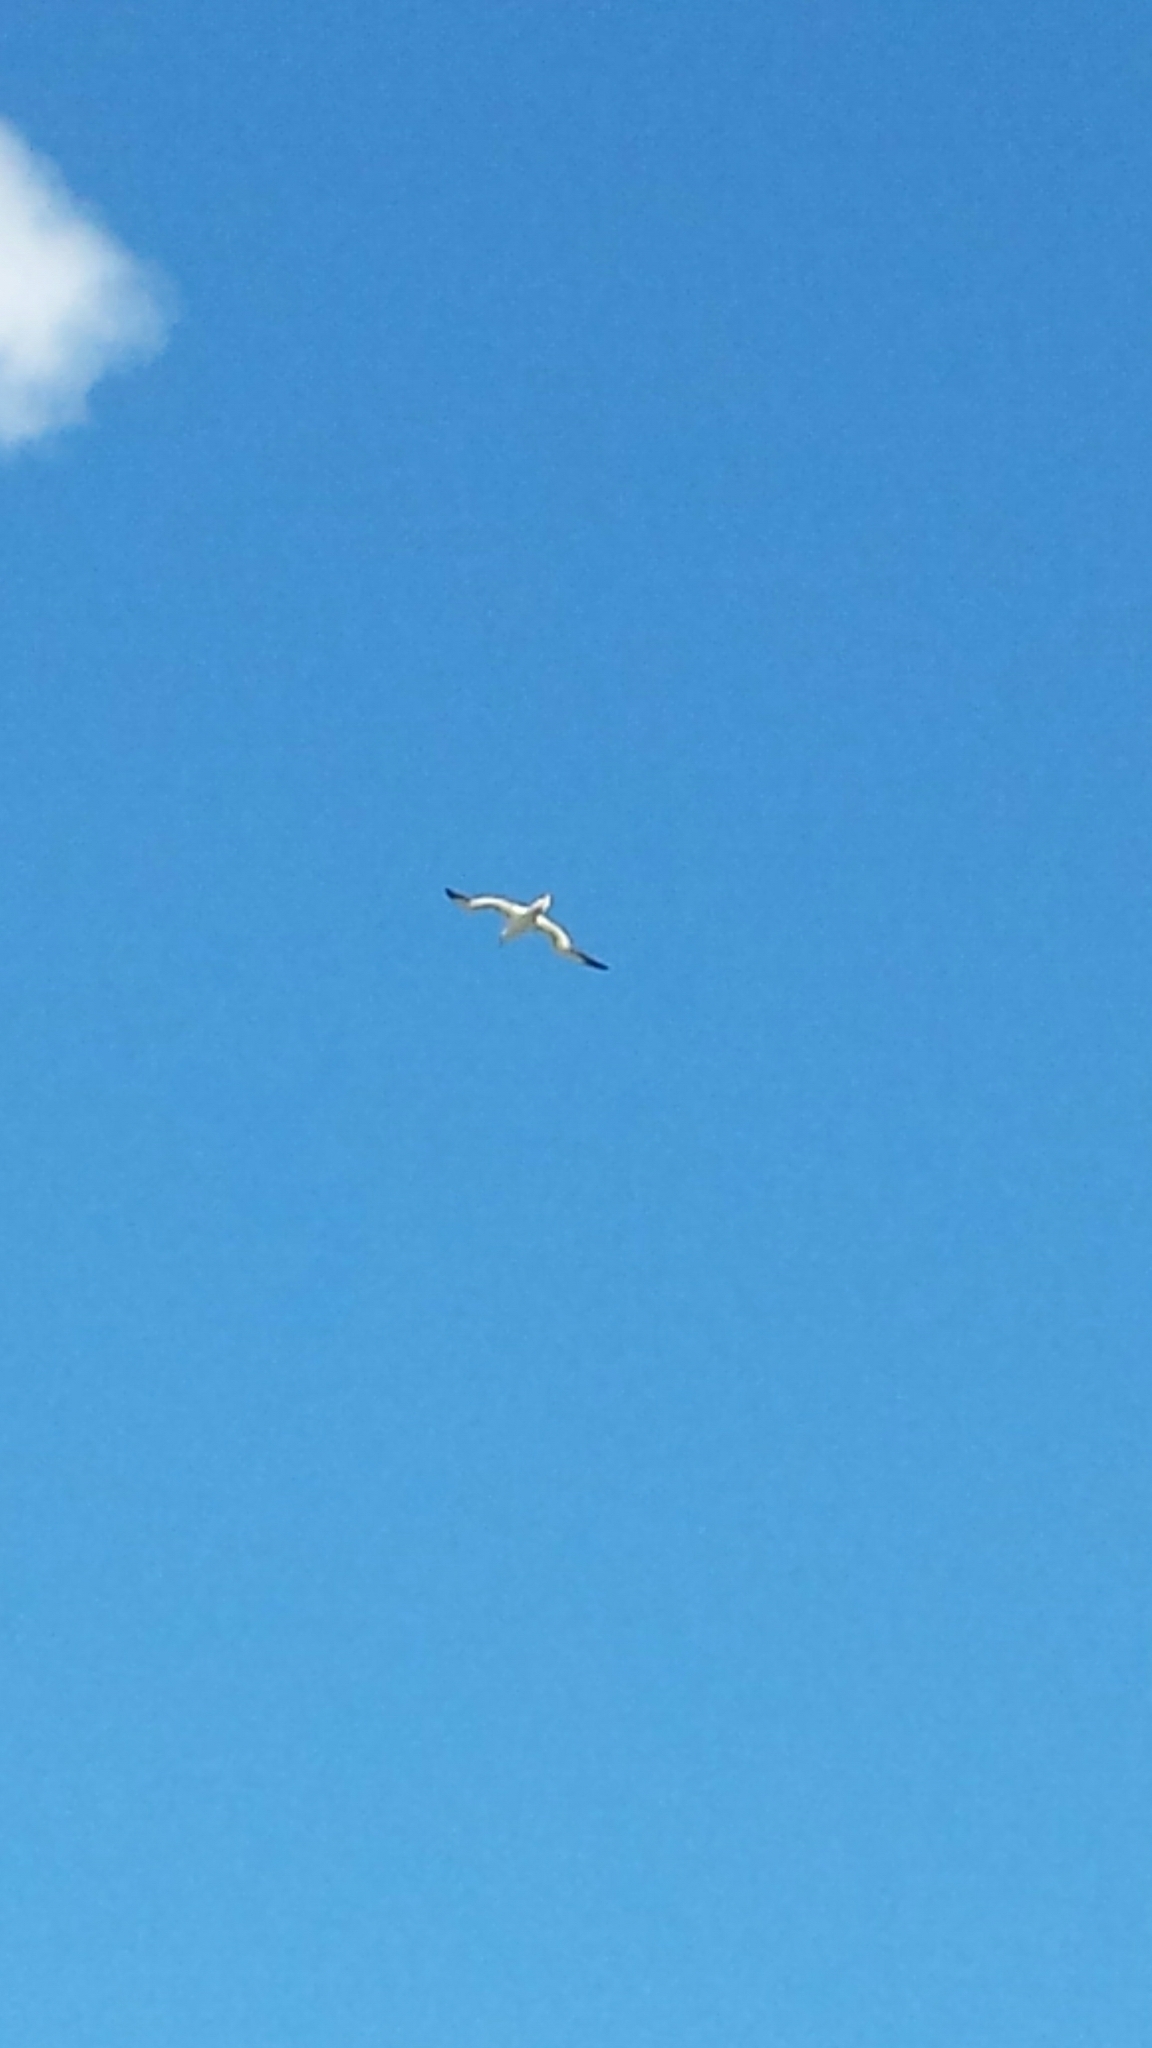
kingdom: Animalia
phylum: Chordata
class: Aves
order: Suliformes
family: Sulidae
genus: Morus
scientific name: Morus bassanus
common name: Northern gannet
